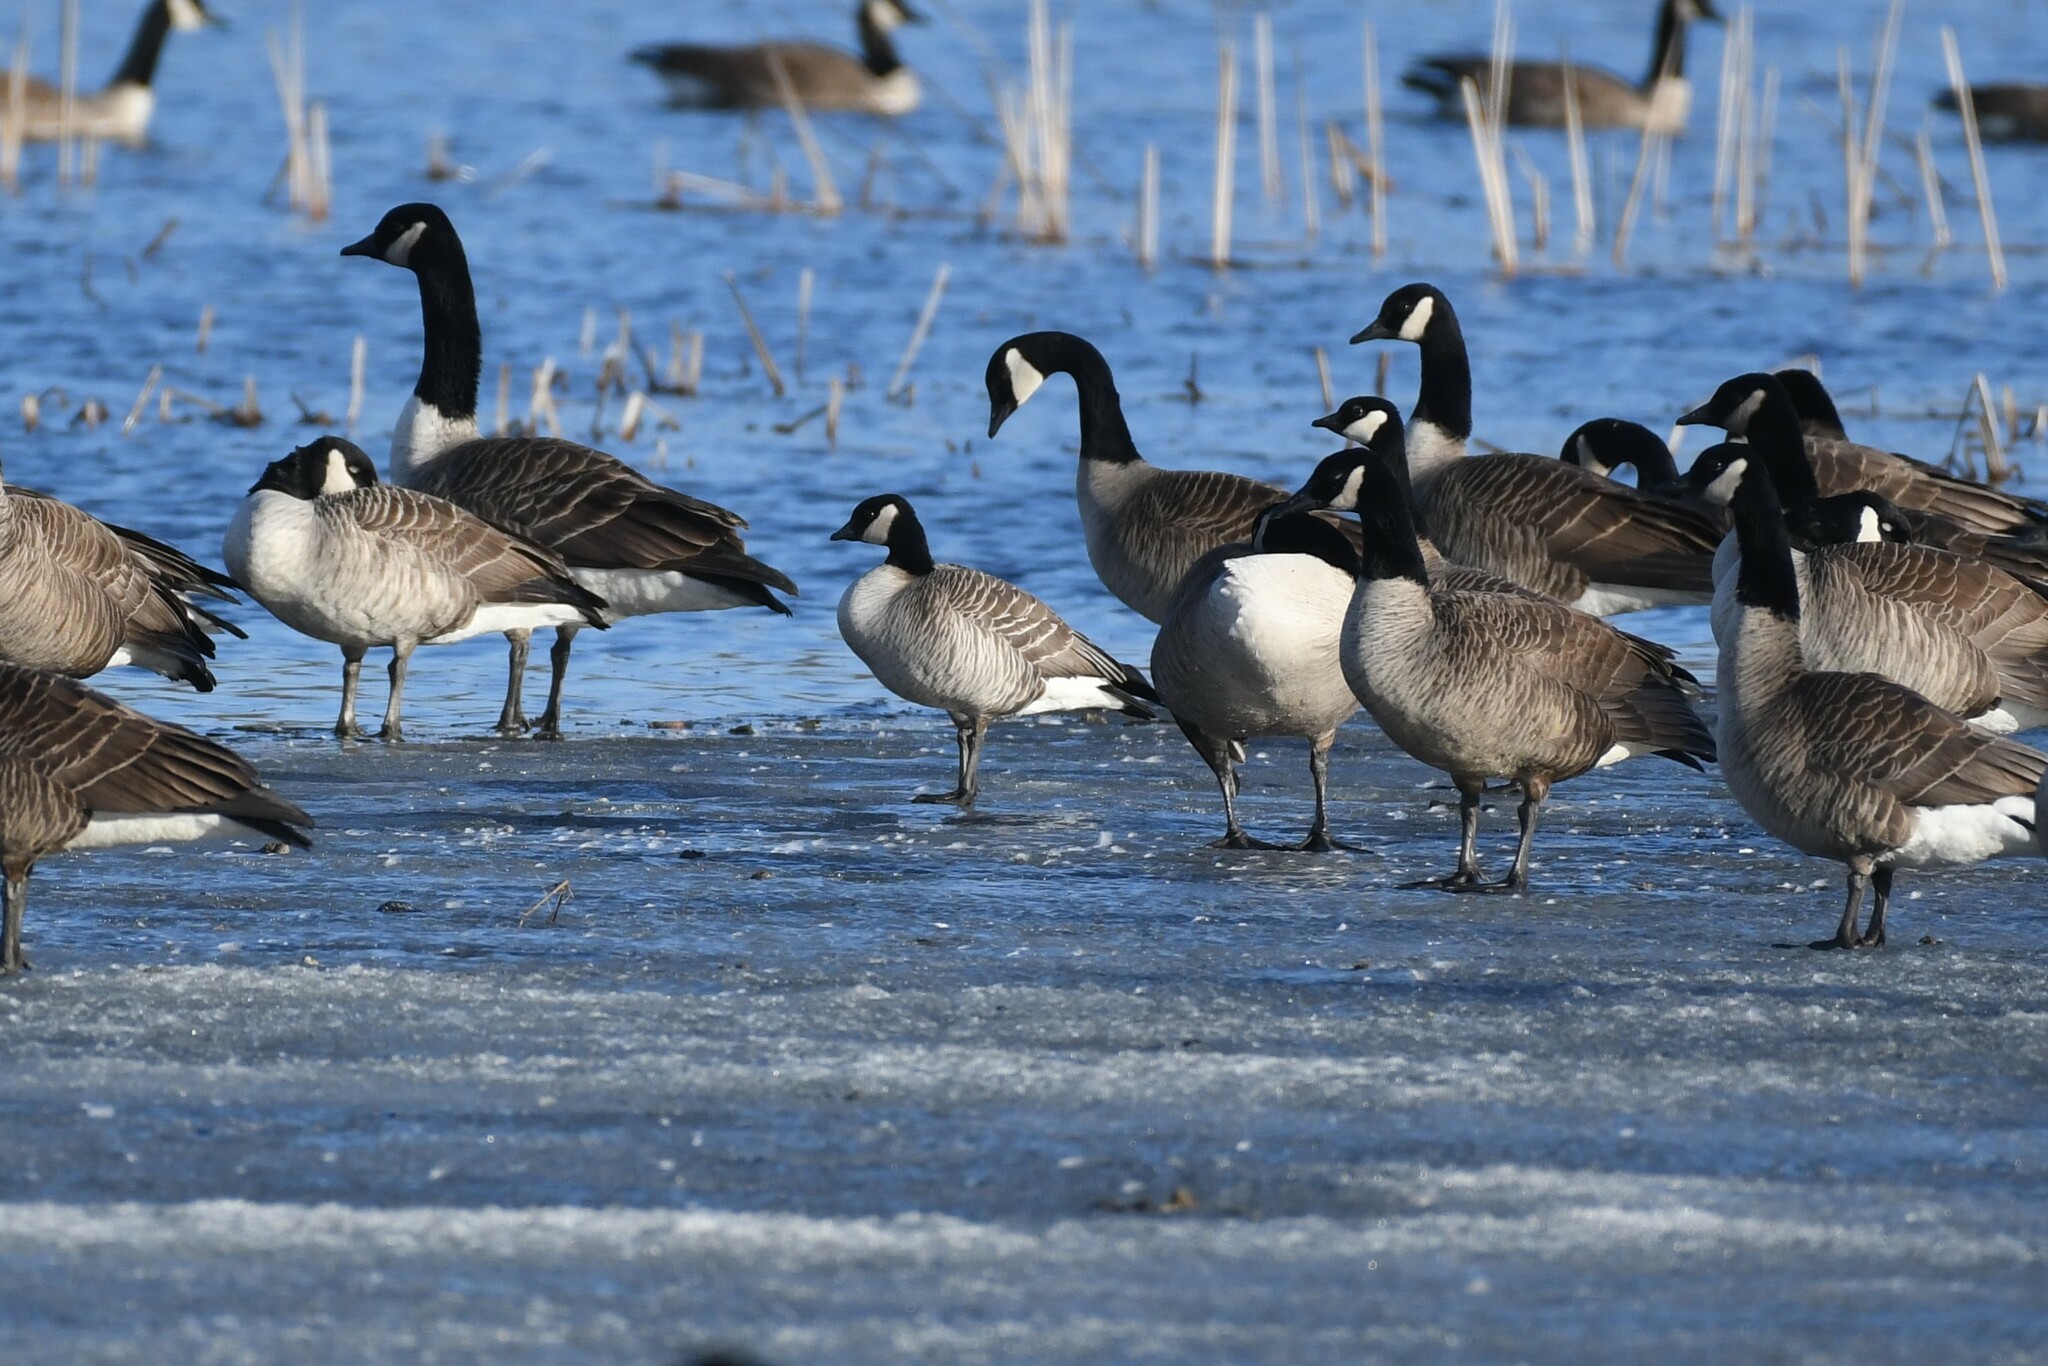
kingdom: Animalia
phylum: Chordata
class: Aves
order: Anseriformes
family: Anatidae
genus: Branta
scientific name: Branta hutchinsii
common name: Cackling goose
